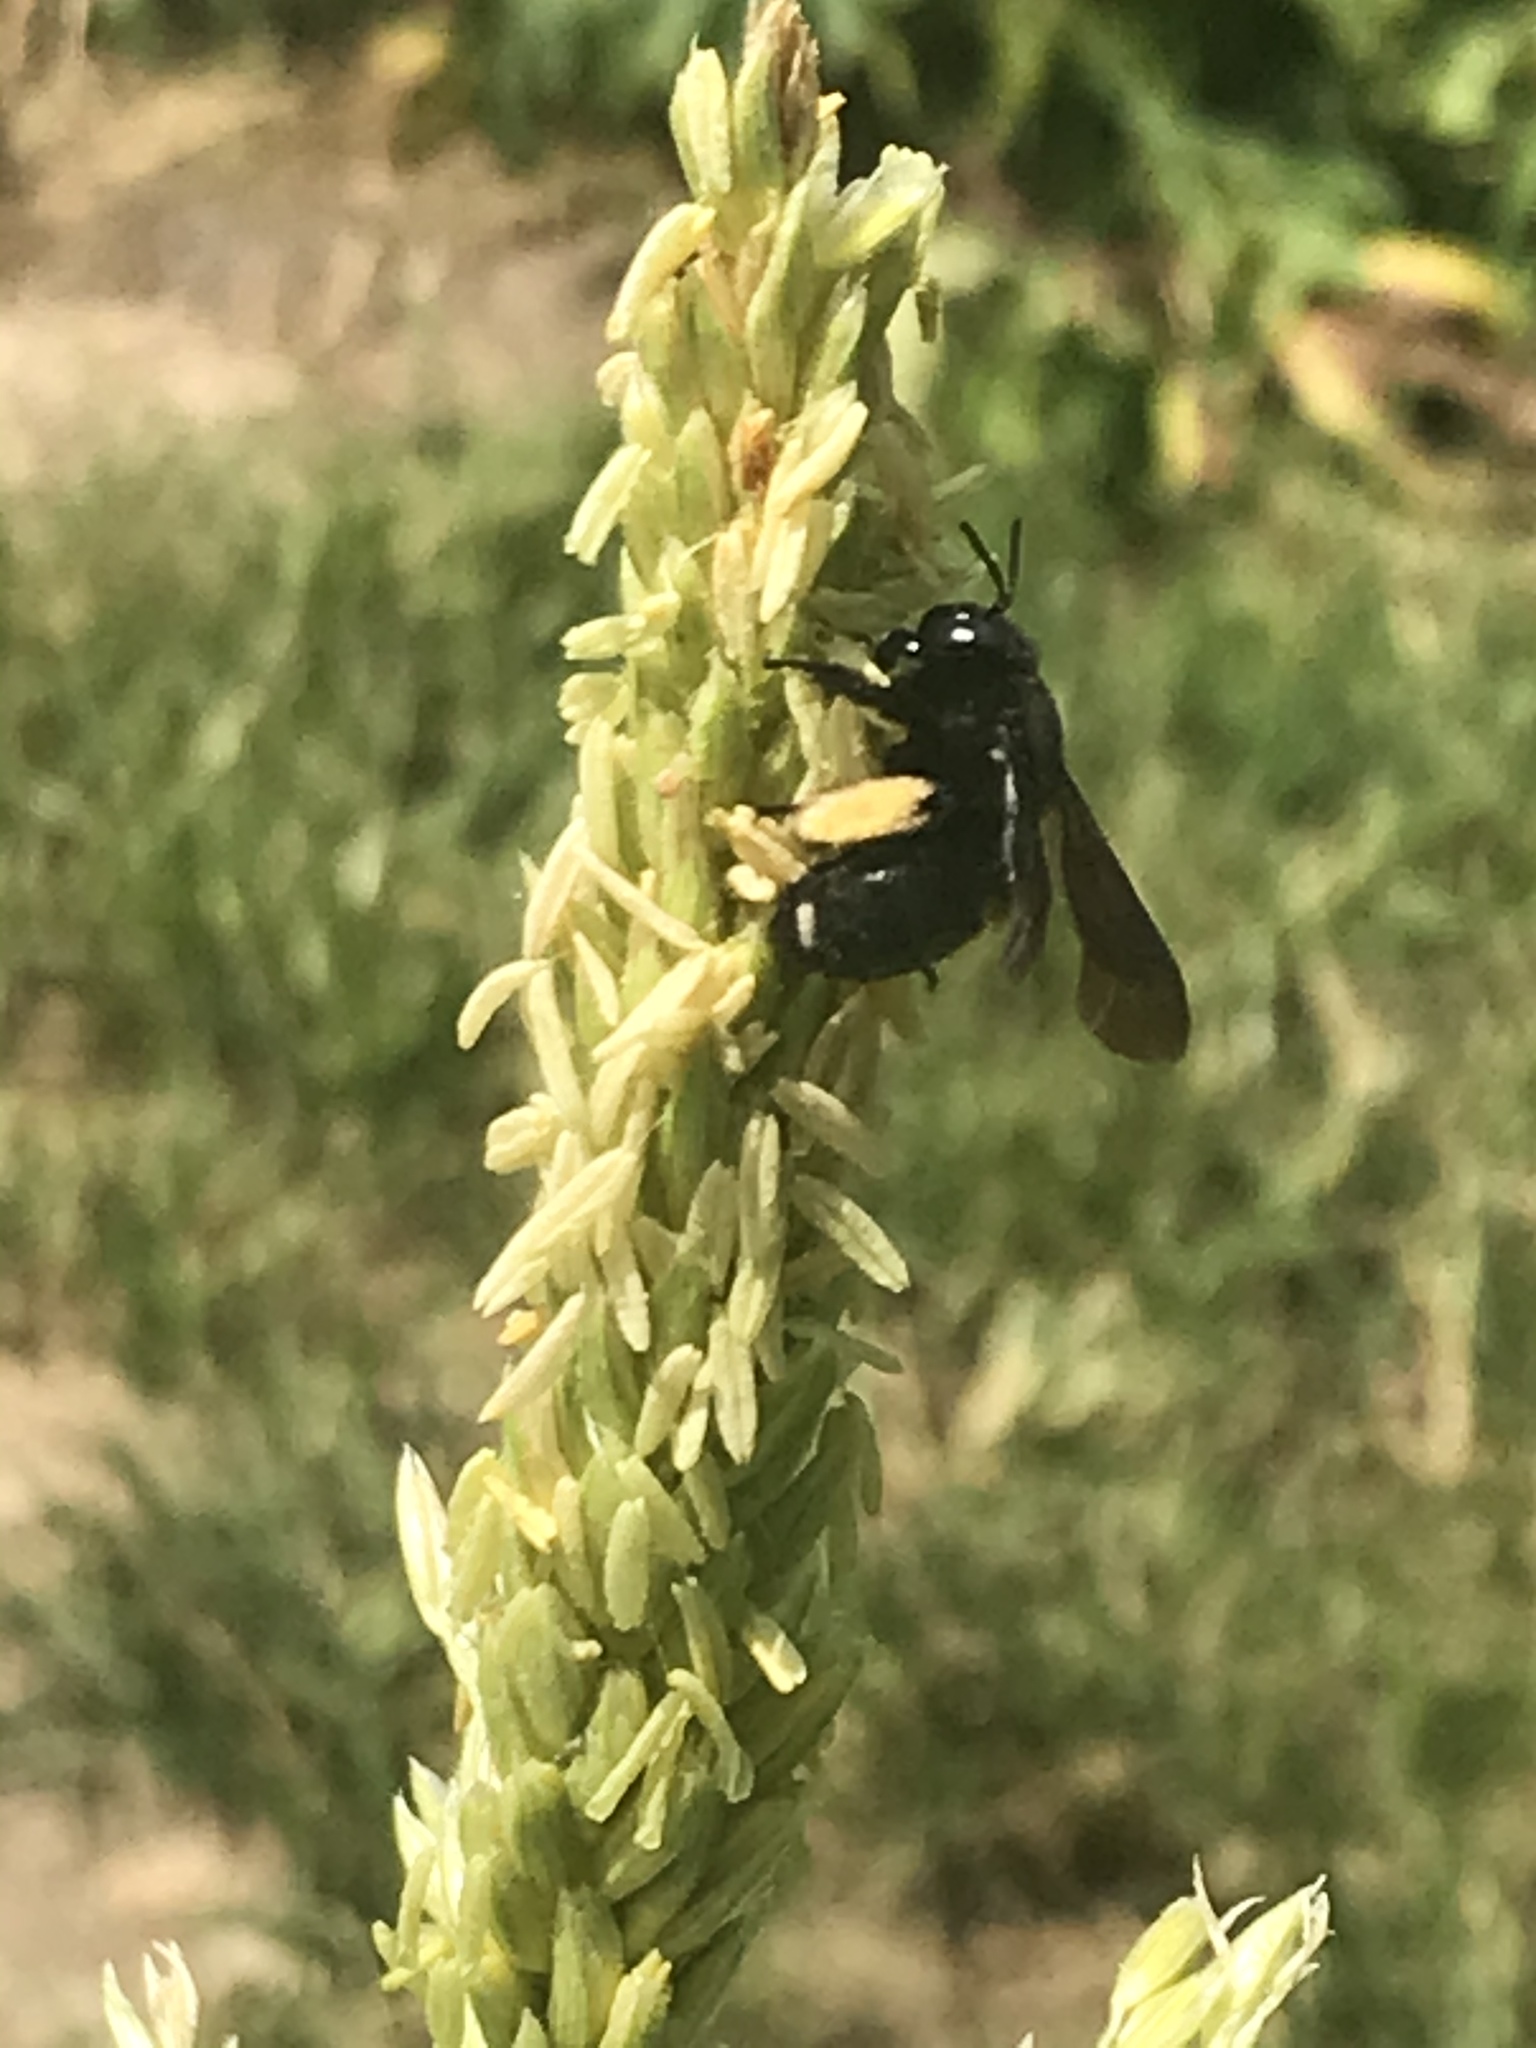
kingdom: Animalia
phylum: Arthropoda
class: Insecta
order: Hymenoptera
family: Apidae
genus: Melissodes
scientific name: Melissodes bimaculatus
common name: Two-spotted long-horned bee
